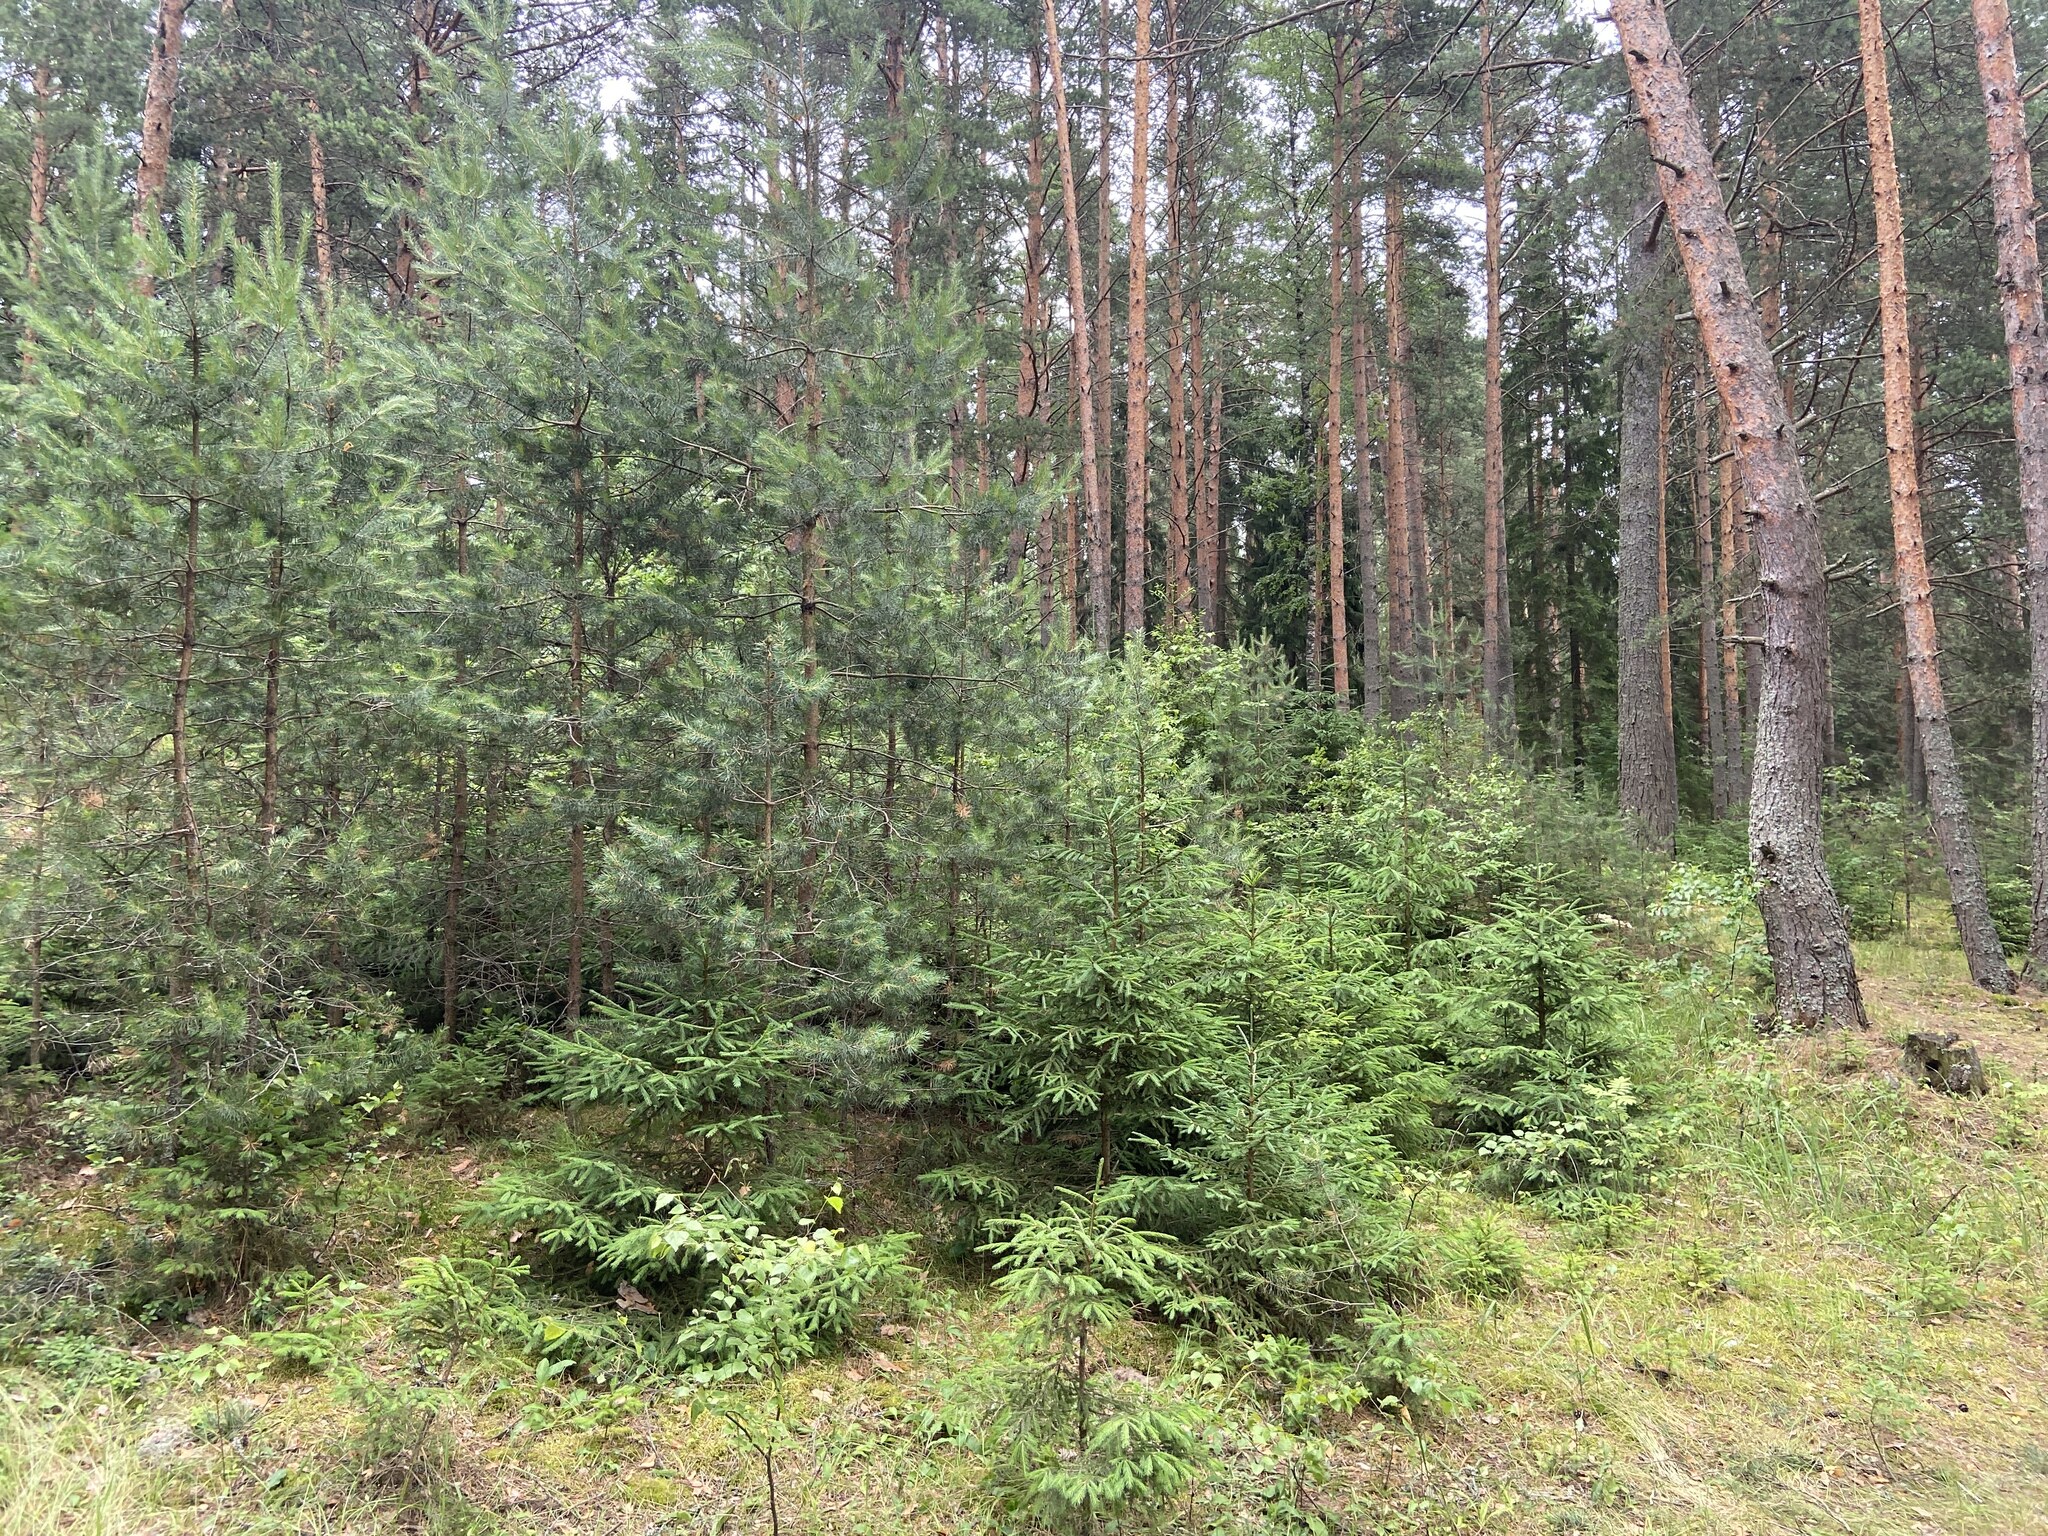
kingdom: Plantae
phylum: Tracheophyta
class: Pinopsida
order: Pinales
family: Pinaceae
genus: Pinus
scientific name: Pinus sylvestris
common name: Scots pine
